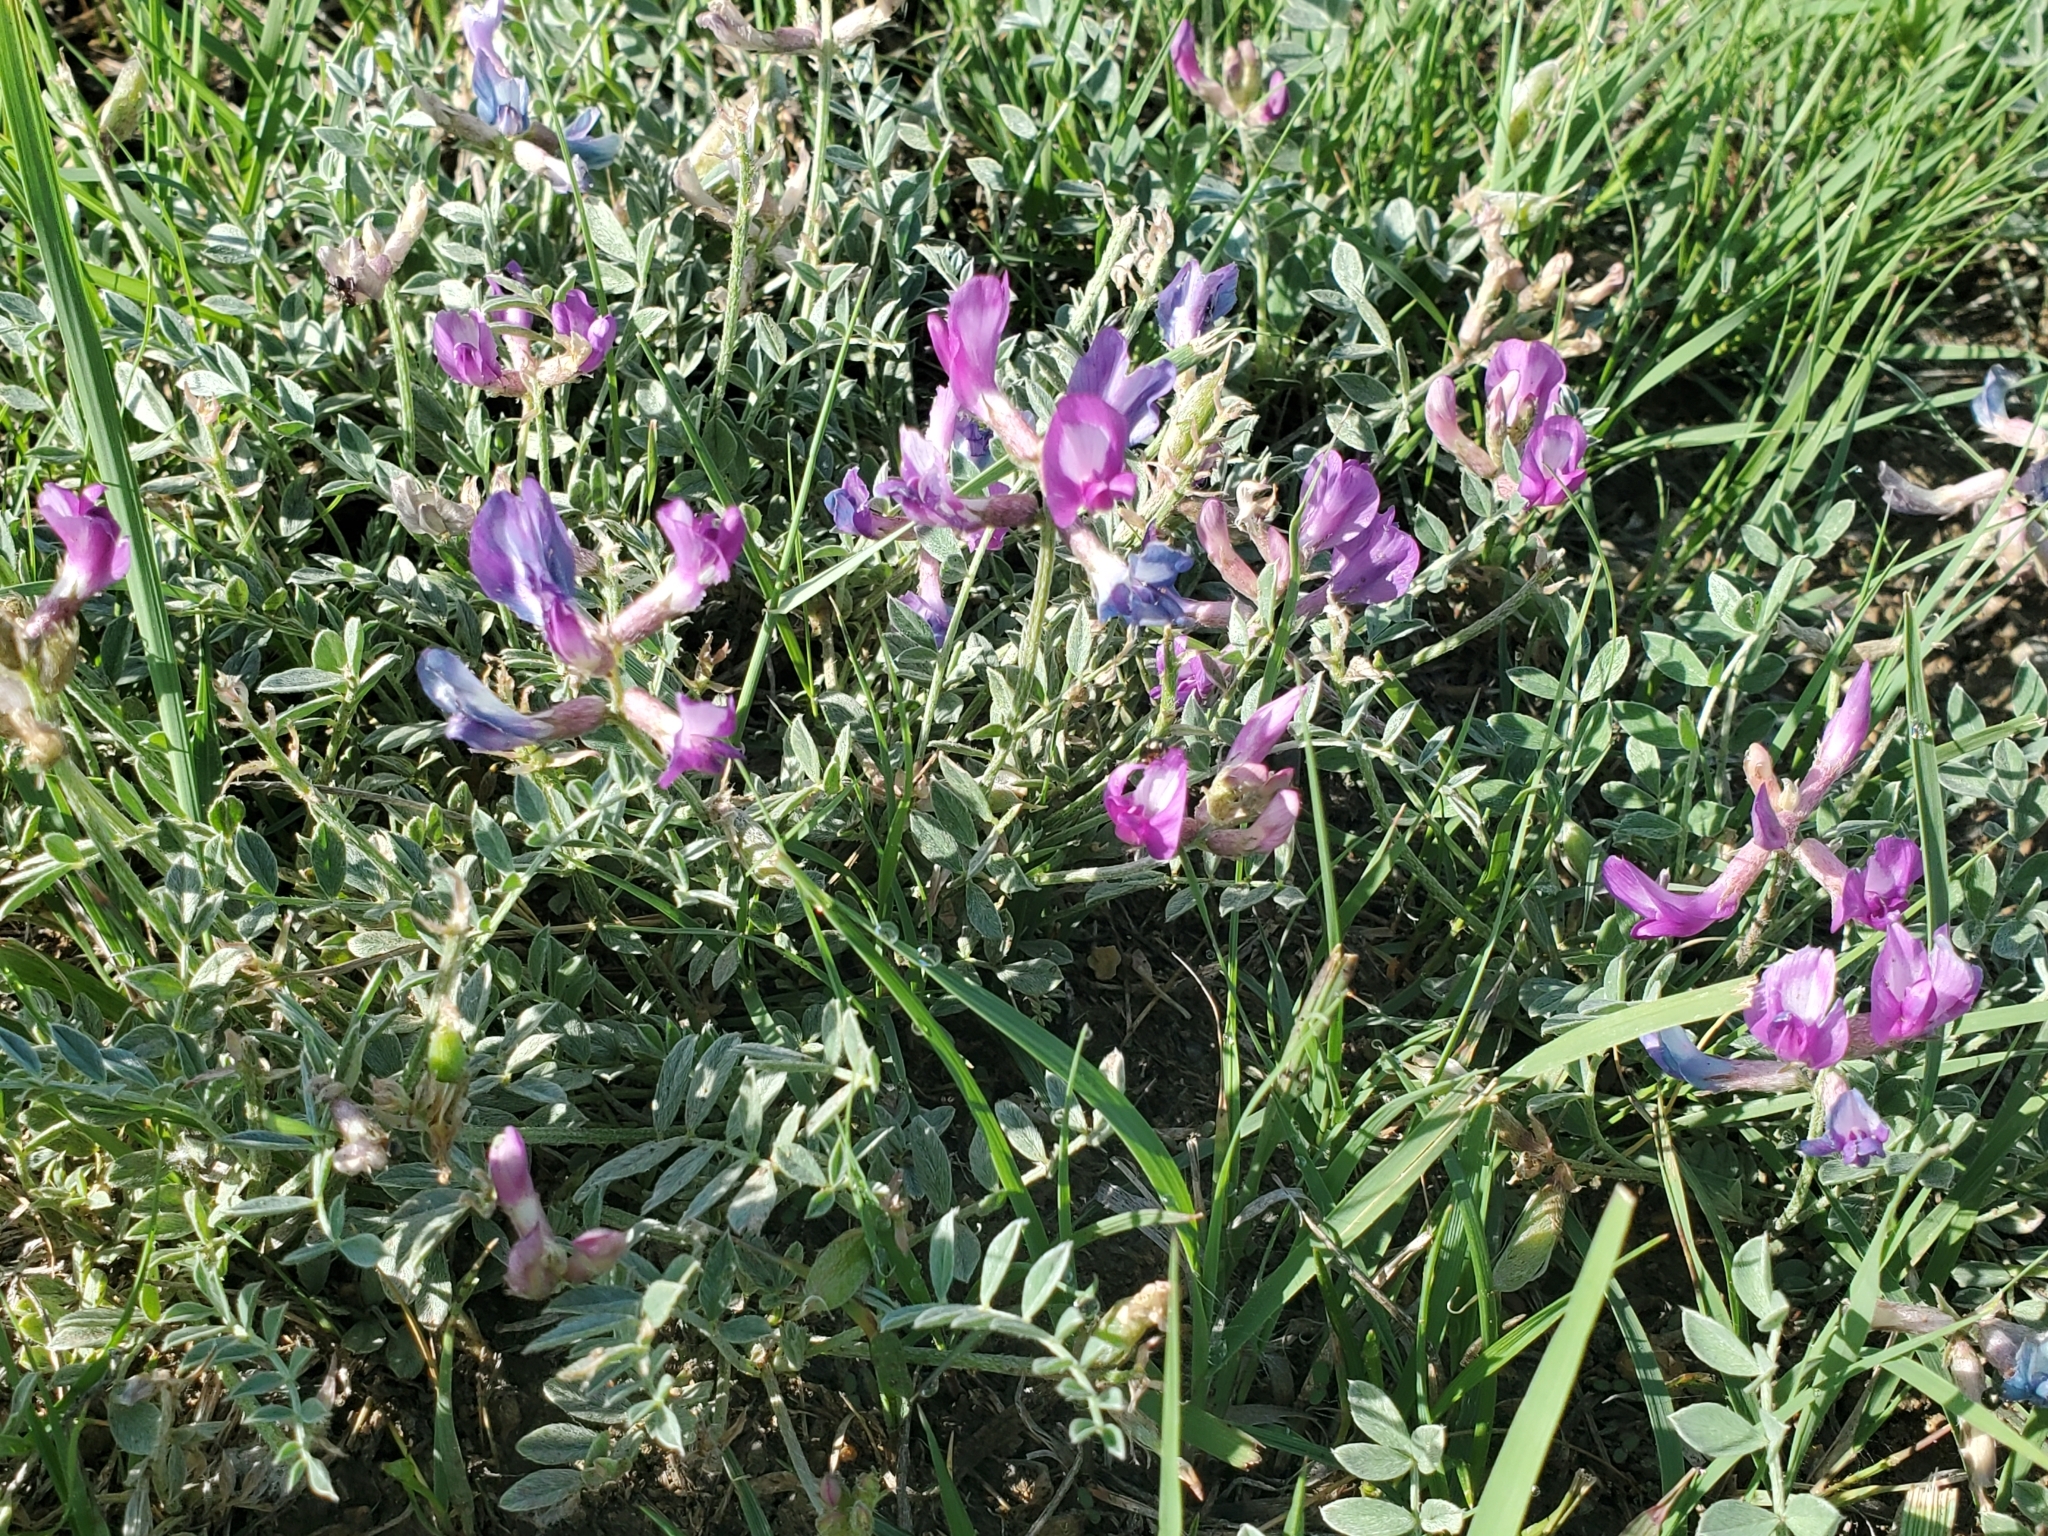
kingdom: Plantae
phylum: Tracheophyta
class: Magnoliopsida
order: Fabales
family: Fabaceae
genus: Astragalus
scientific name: Astragalus missouriensis
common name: Missouri milk-vetch
